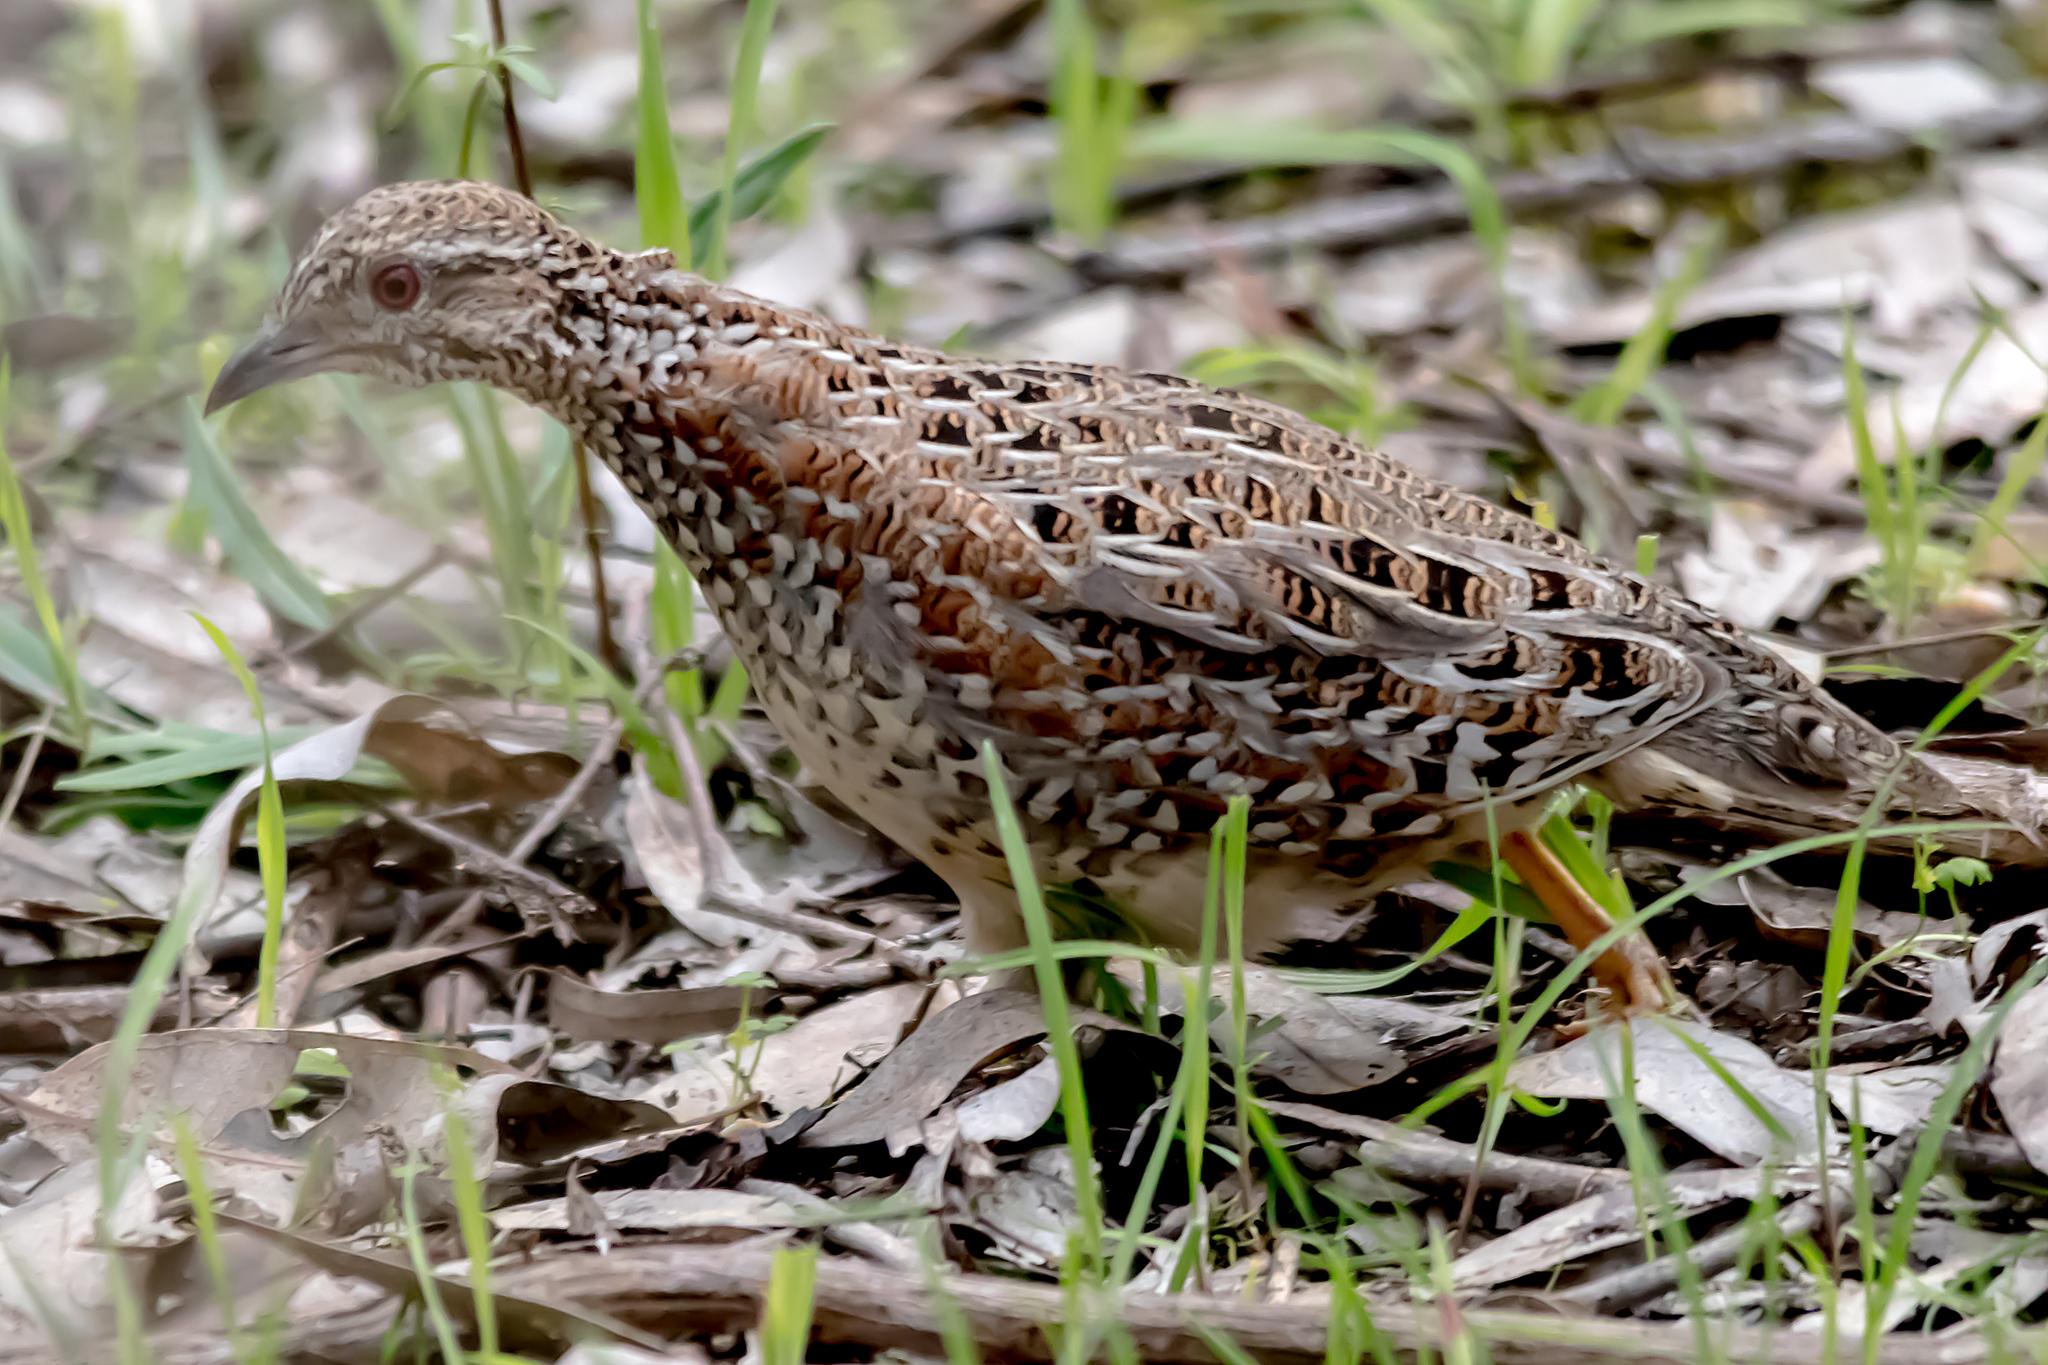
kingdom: Animalia
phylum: Chordata
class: Aves
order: Charadriiformes
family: Turnicidae
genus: Turnix
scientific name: Turnix varius
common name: Painted buttonquail
